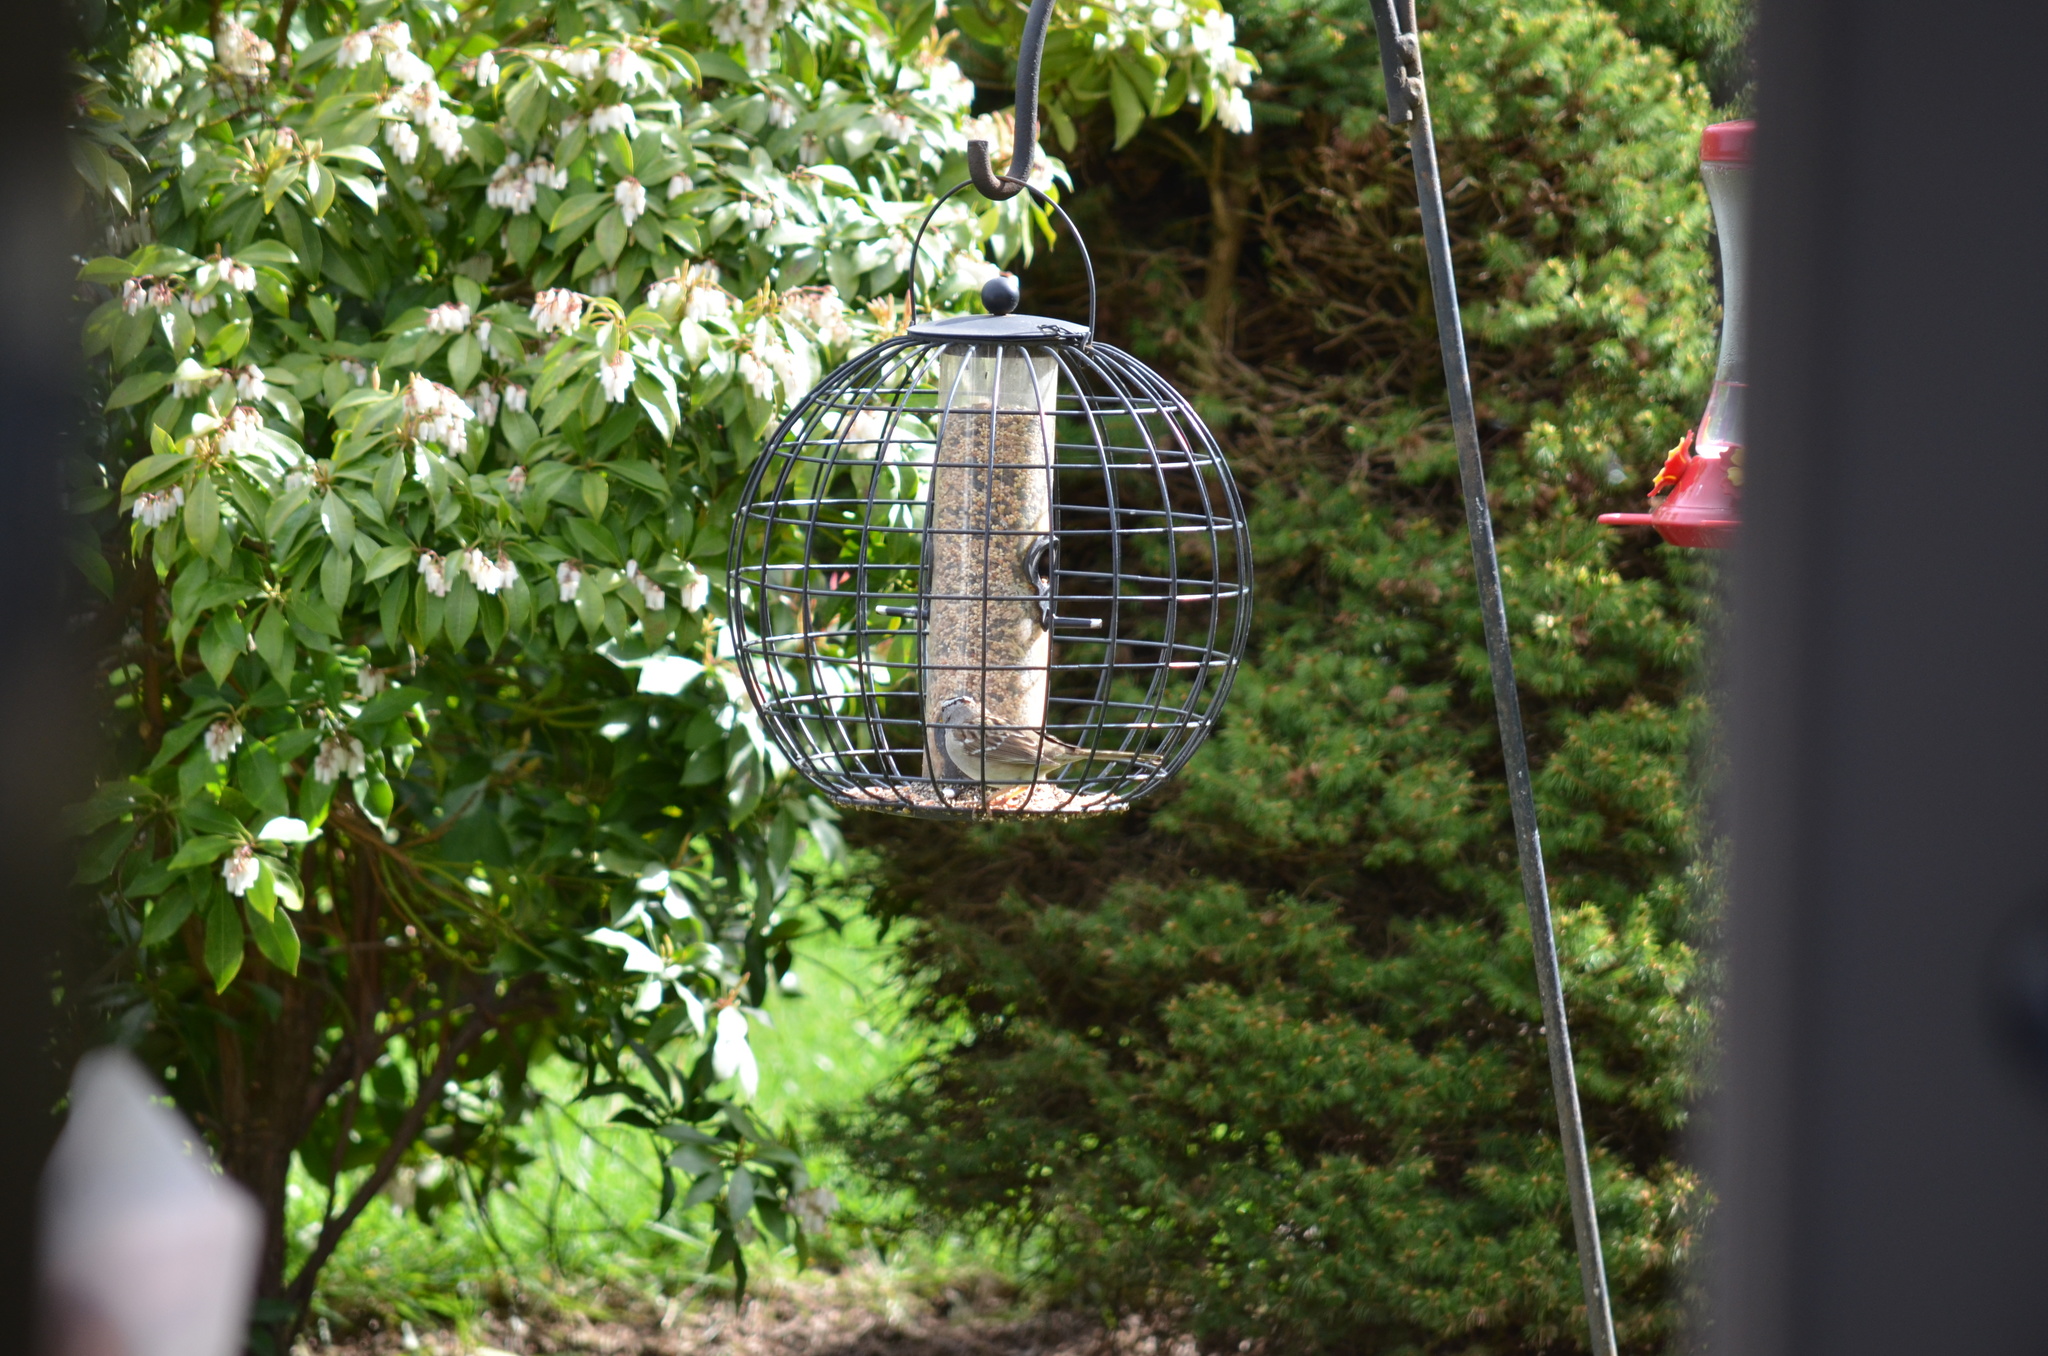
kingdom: Animalia
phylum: Chordata
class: Aves
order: Passeriformes
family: Passerellidae
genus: Zonotrichia
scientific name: Zonotrichia leucophrys
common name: White-crowned sparrow
